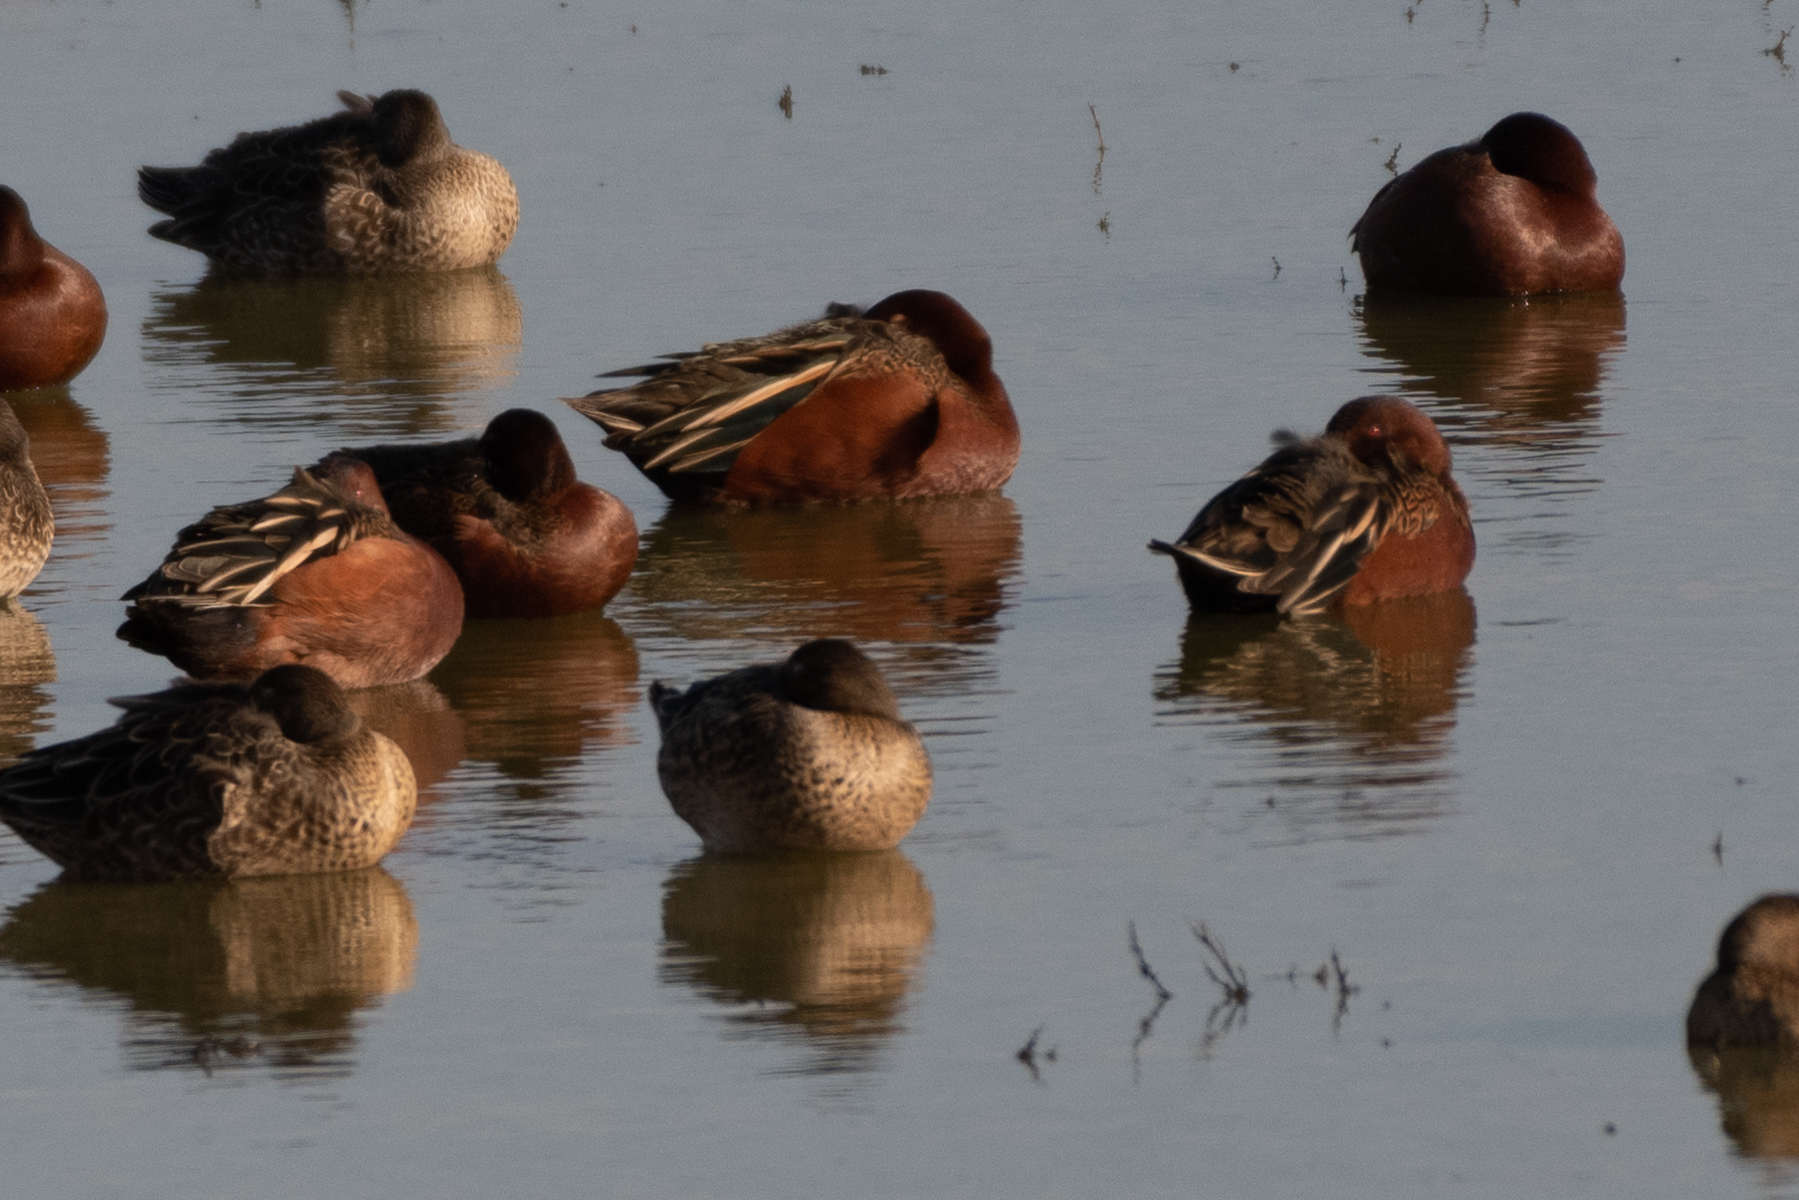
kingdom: Animalia
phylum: Chordata
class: Aves
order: Anseriformes
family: Anatidae
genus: Spatula
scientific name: Spatula cyanoptera
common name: Cinnamon teal
